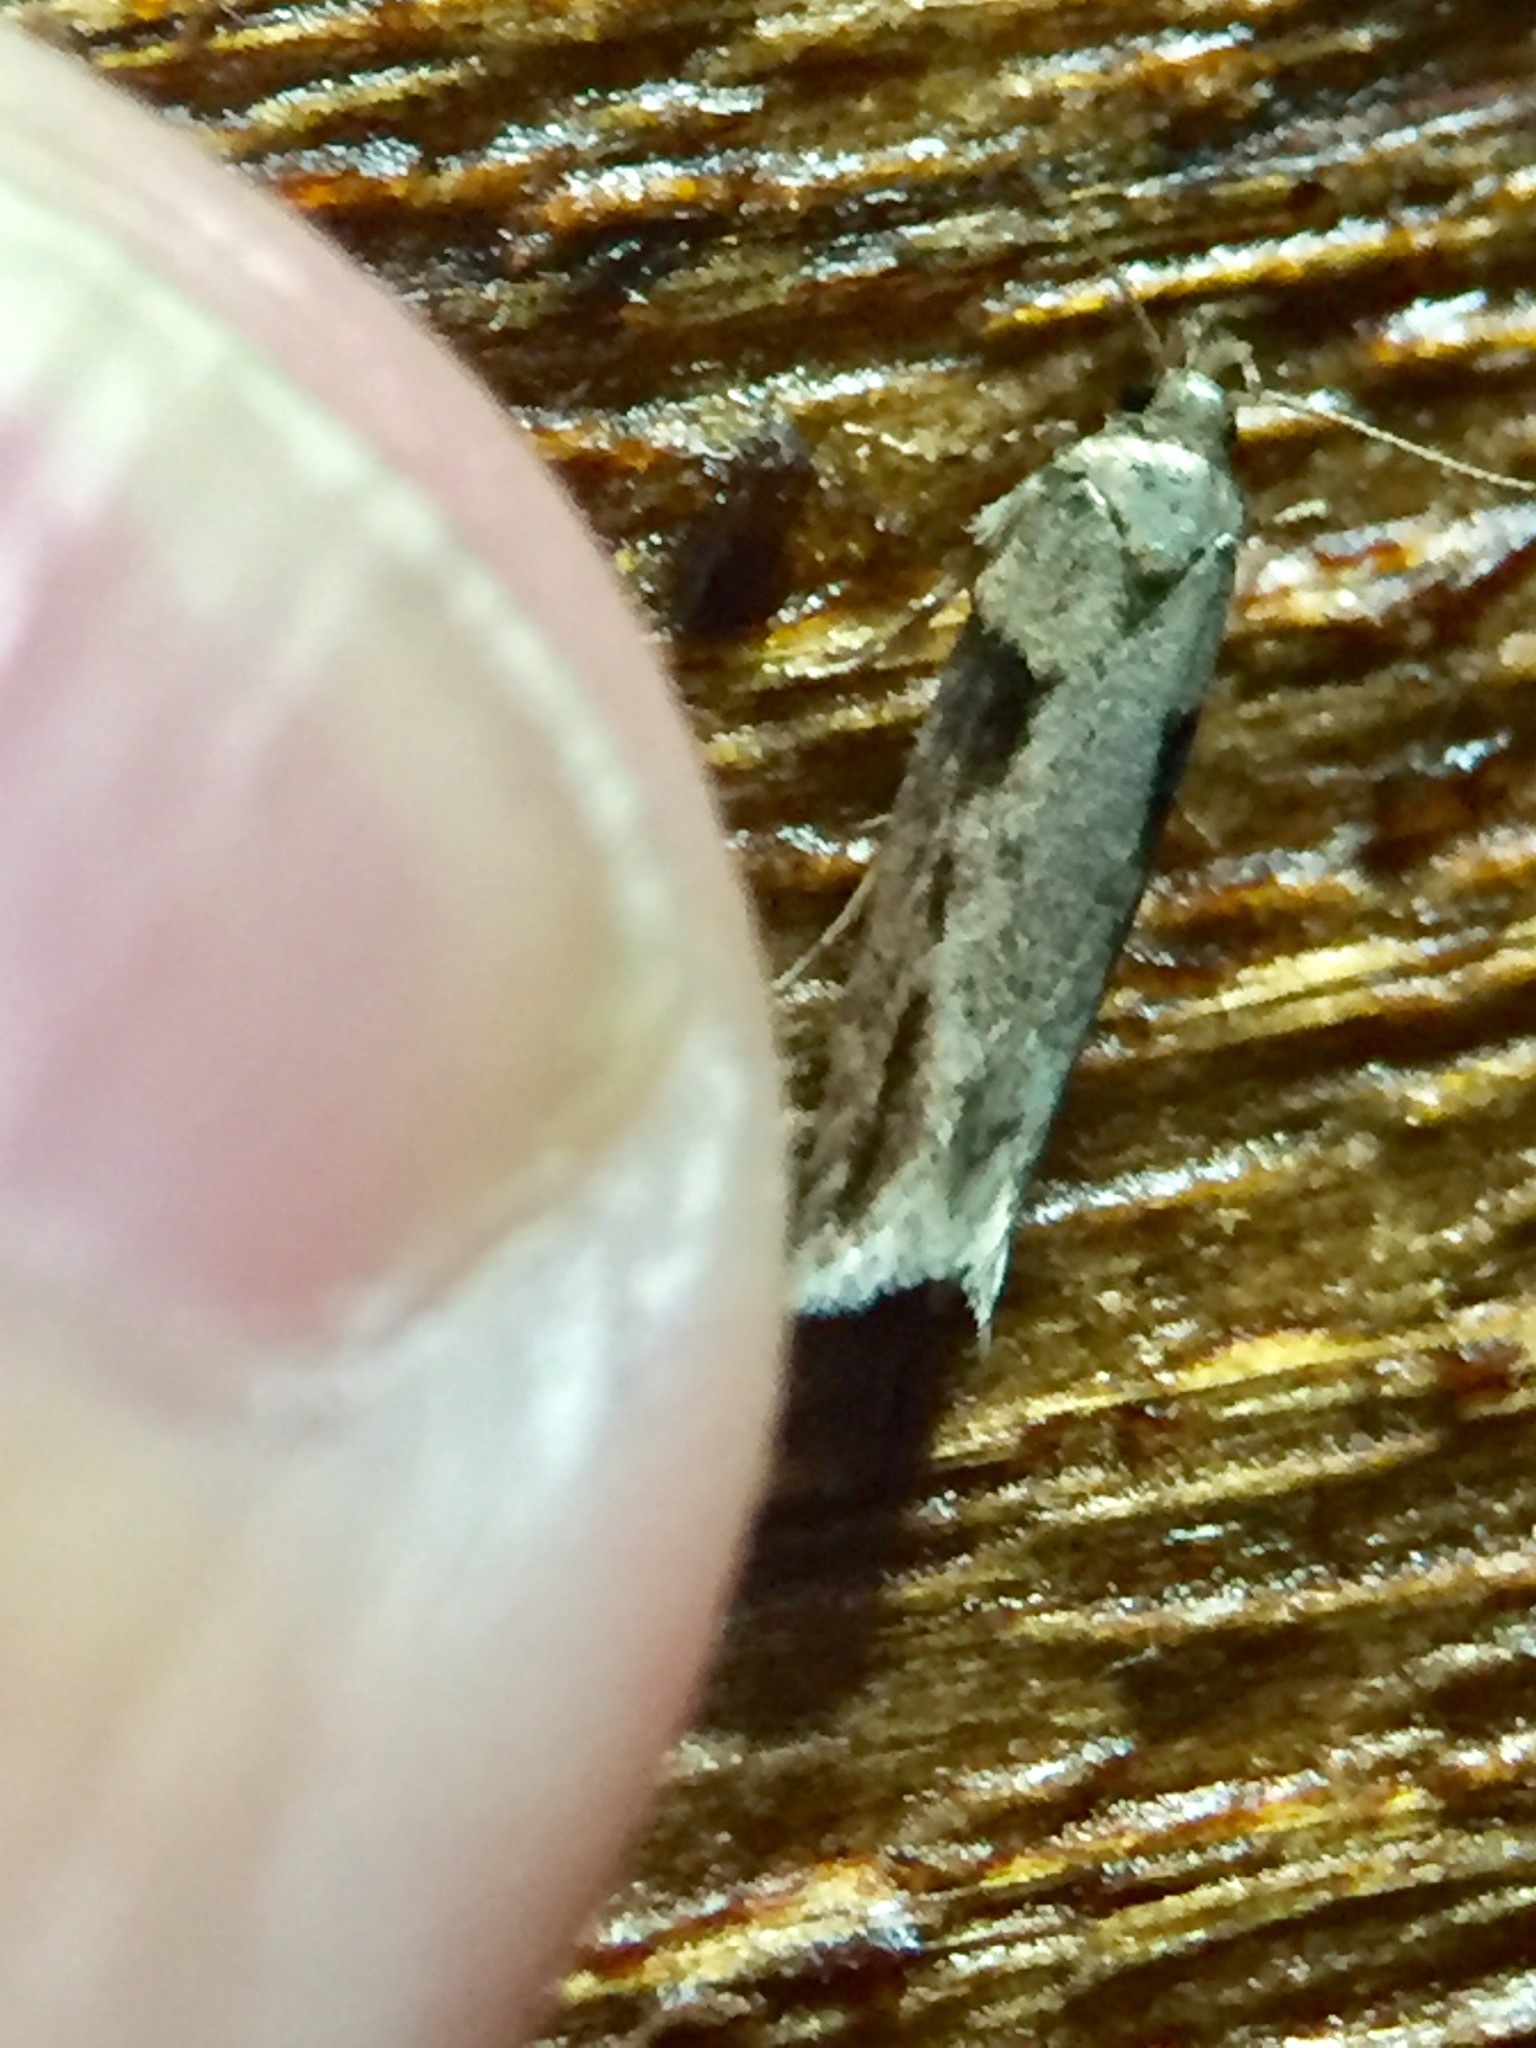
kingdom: Animalia
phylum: Arthropoda
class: Insecta
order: Lepidoptera
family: Gelechiidae
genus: Symmetrischema
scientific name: Symmetrischema tangolias
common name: Moth
